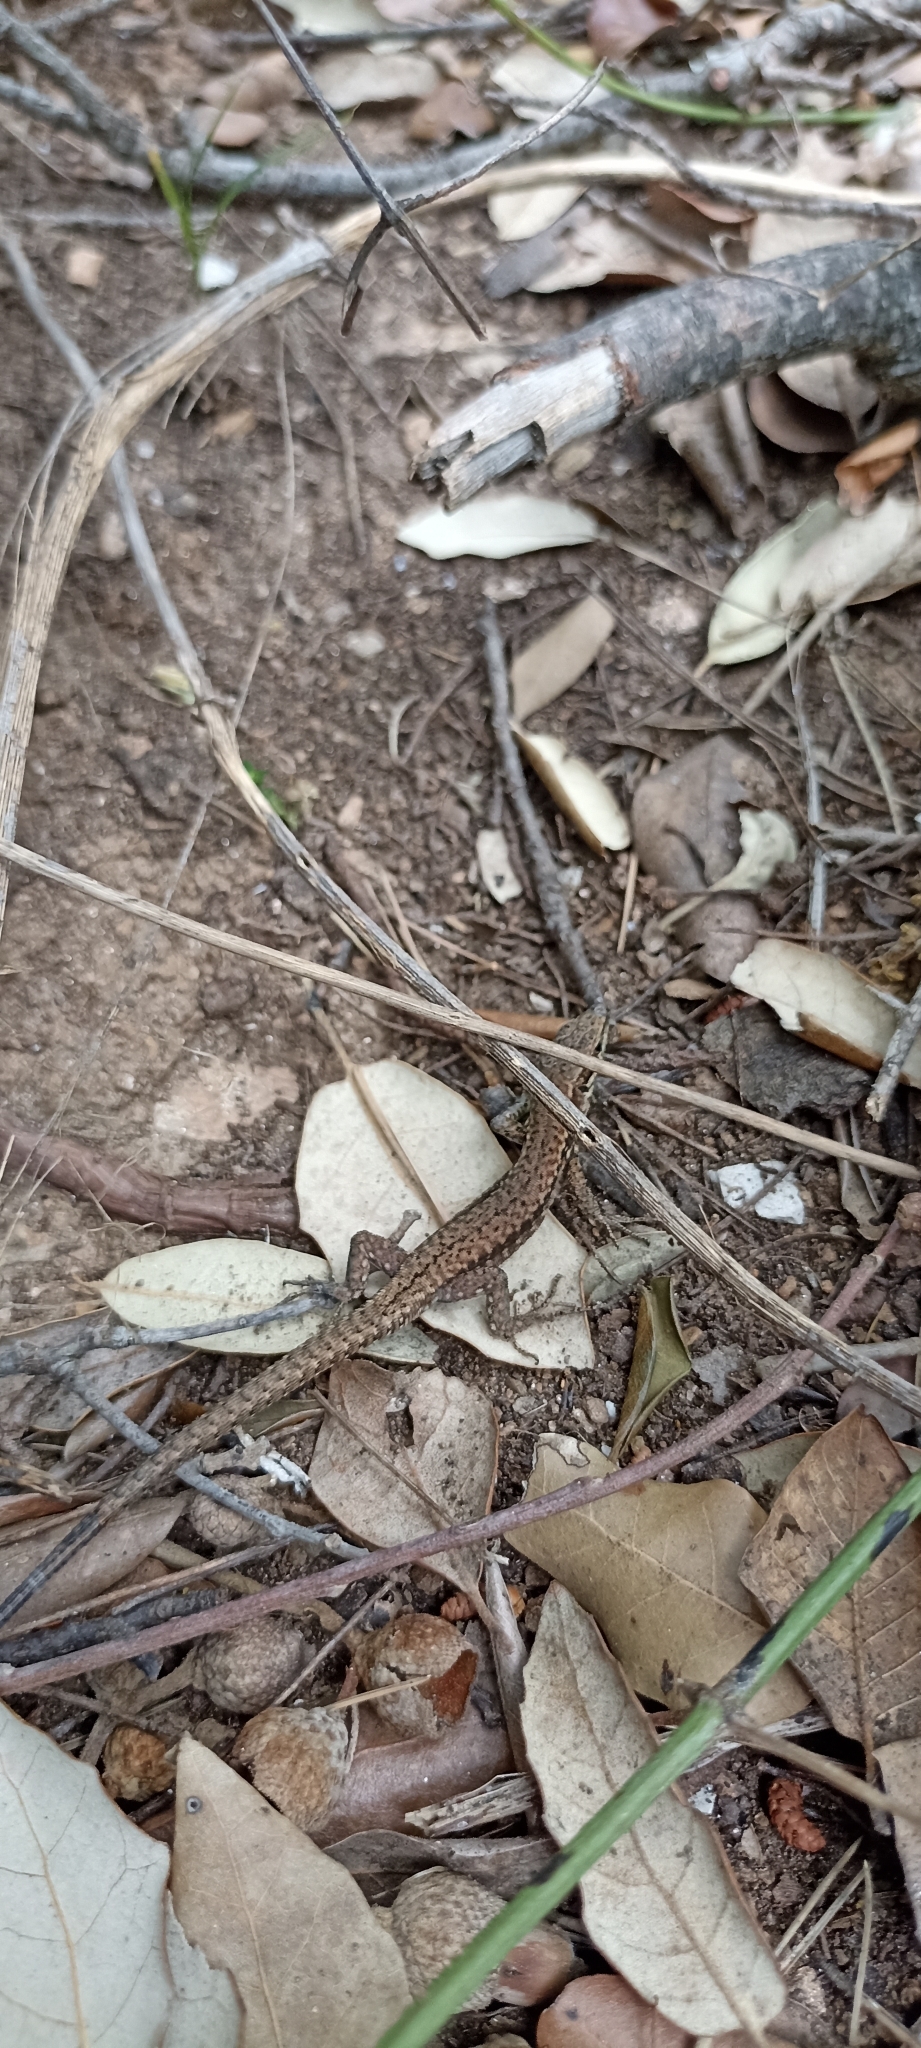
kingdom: Animalia
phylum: Chordata
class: Squamata
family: Lacertidae
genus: Podarcis
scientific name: Podarcis muralis
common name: Common wall lizard
